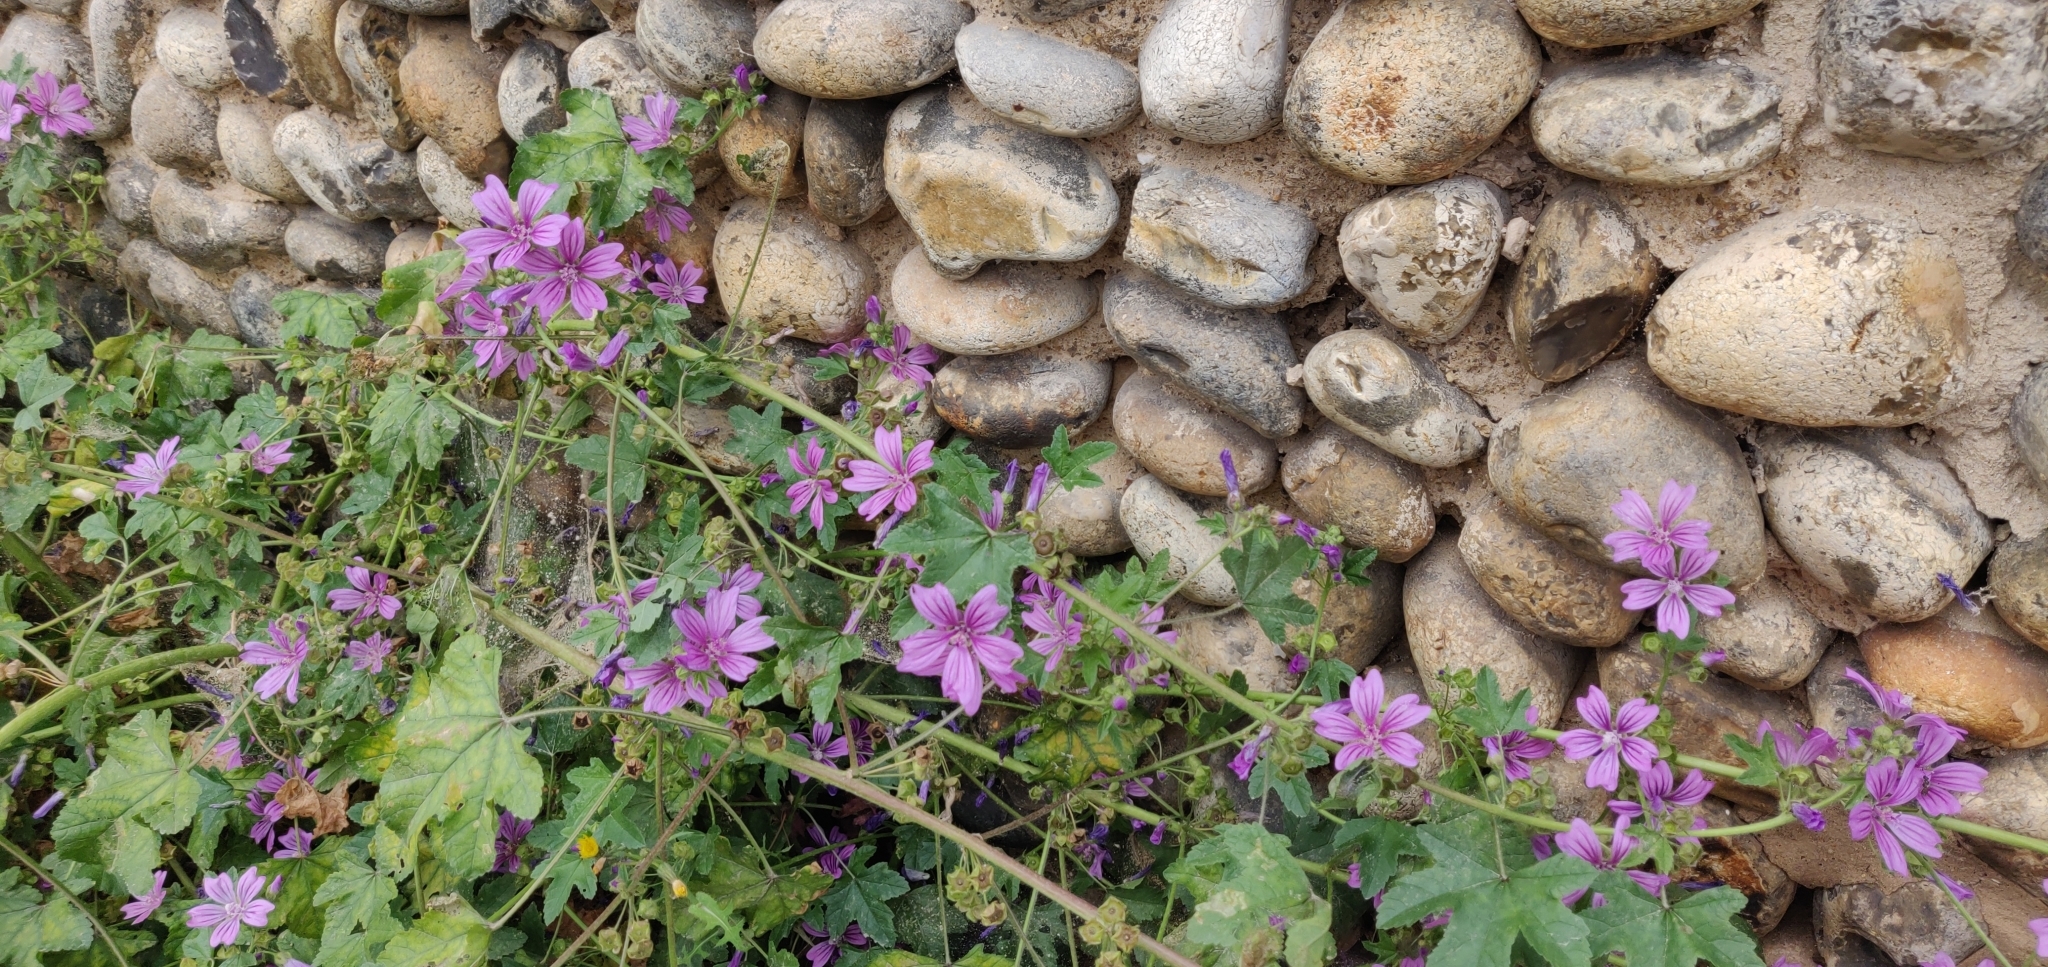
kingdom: Plantae
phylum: Tracheophyta
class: Magnoliopsida
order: Malvales
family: Malvaceae
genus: Malva
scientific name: Malva sylvestris
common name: Common mallow
